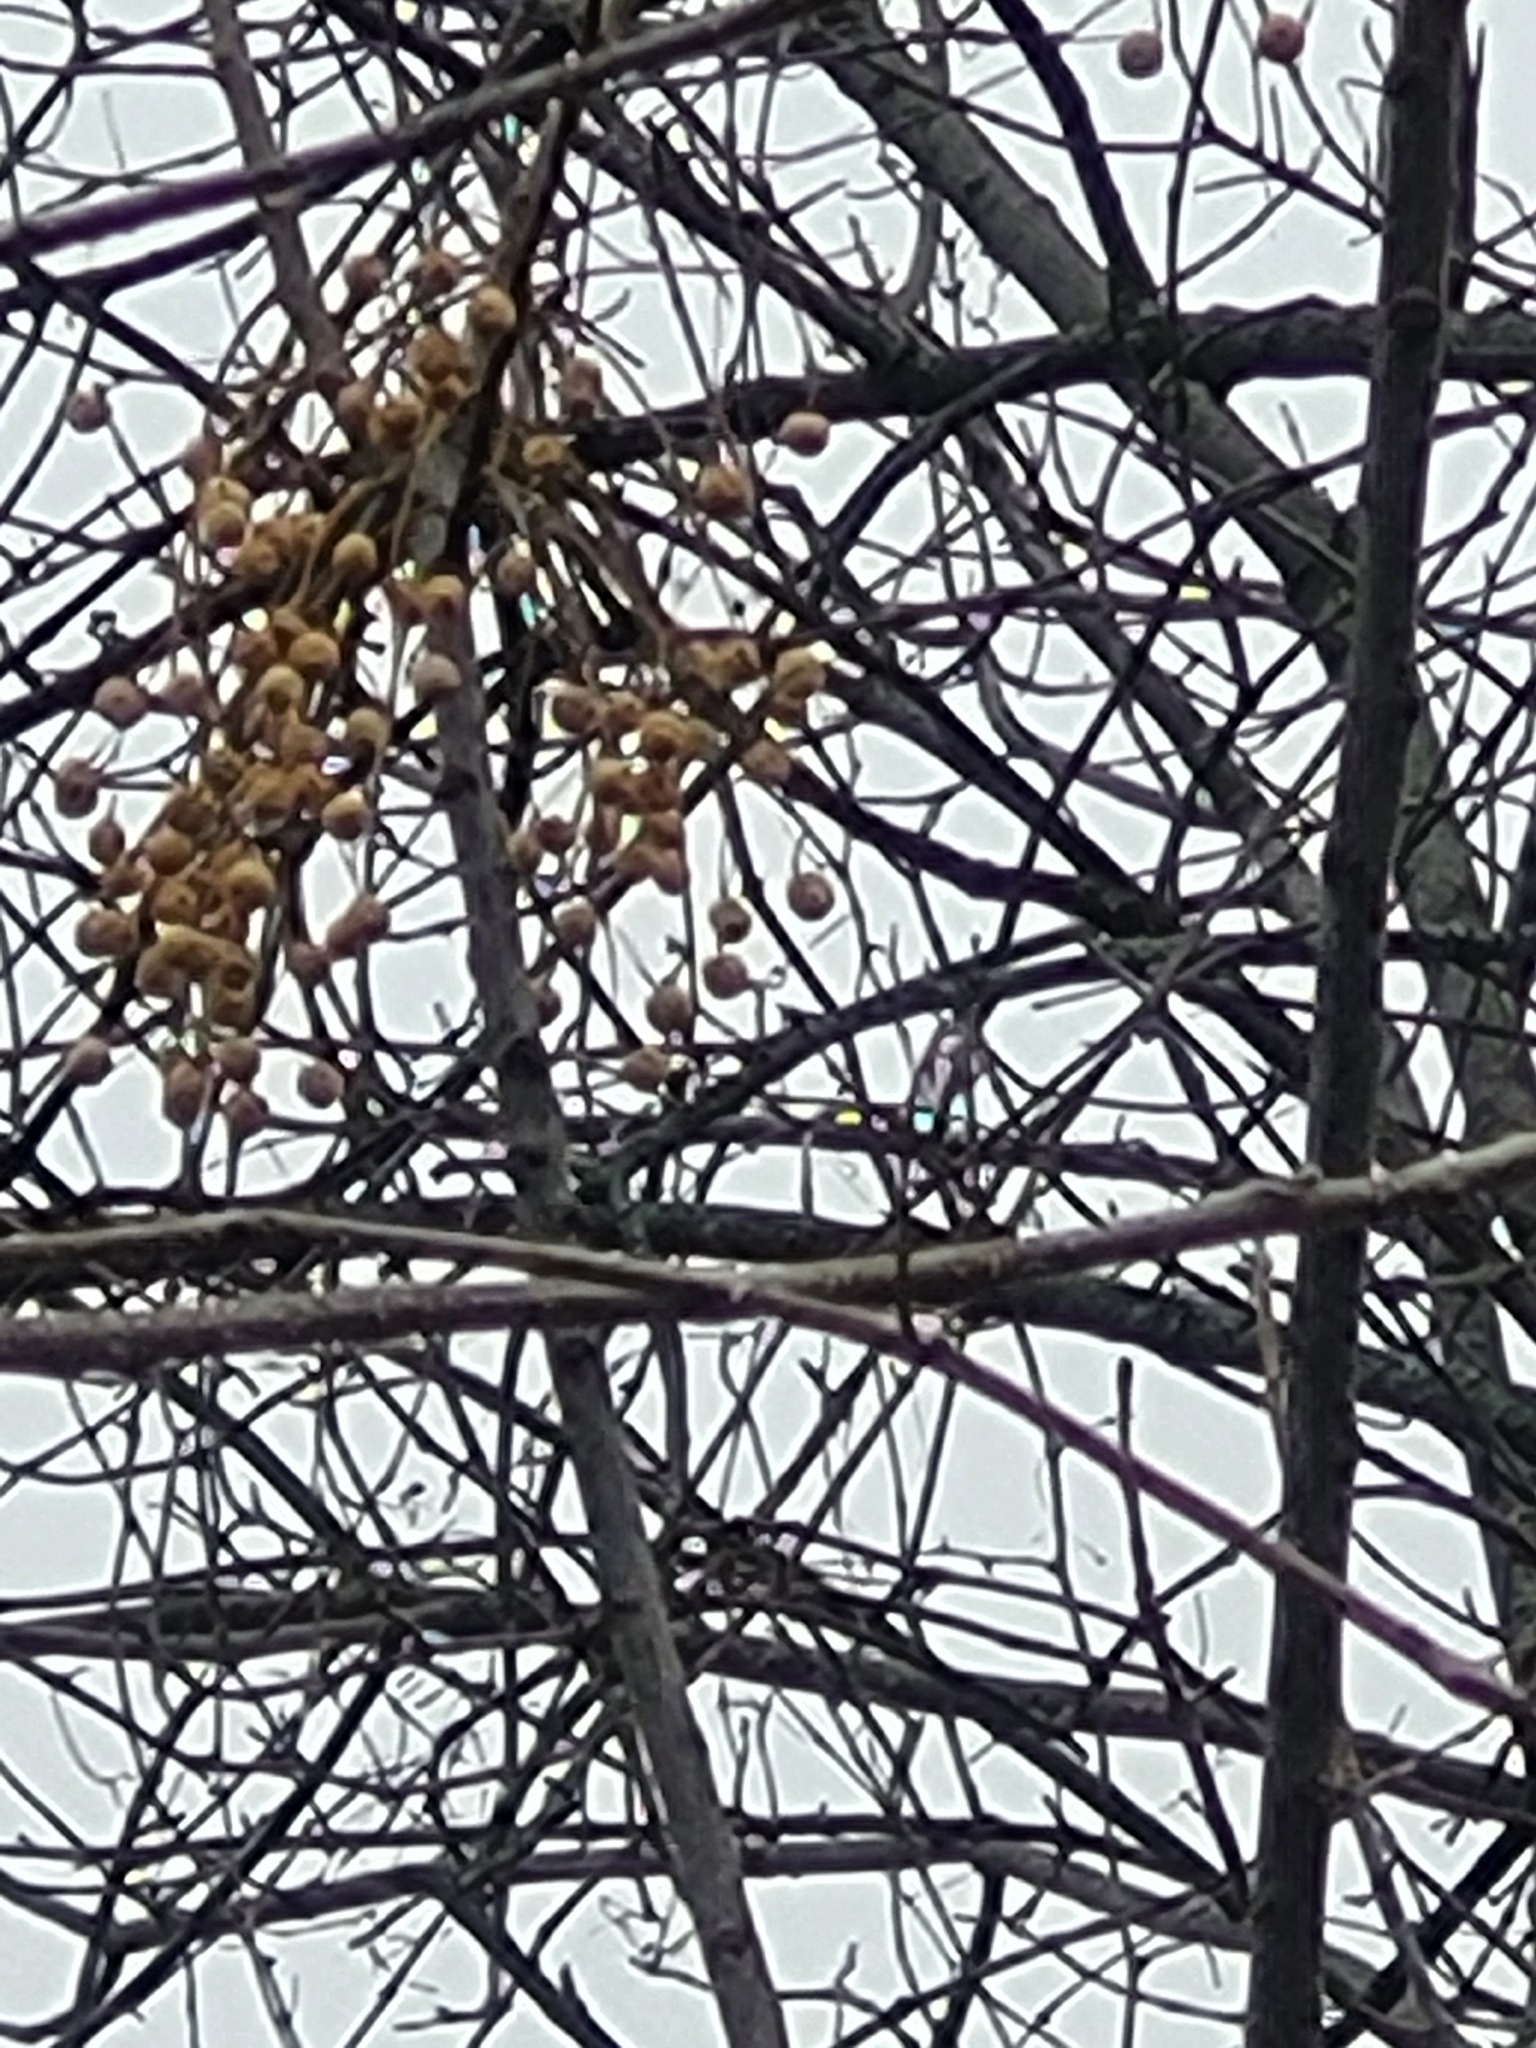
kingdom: Plantae
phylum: Tracheophyta
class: Magnoliopsida
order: Sapindales
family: Meliaceae
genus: Melia
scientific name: Melia azedarach
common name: Chinaberrytree
